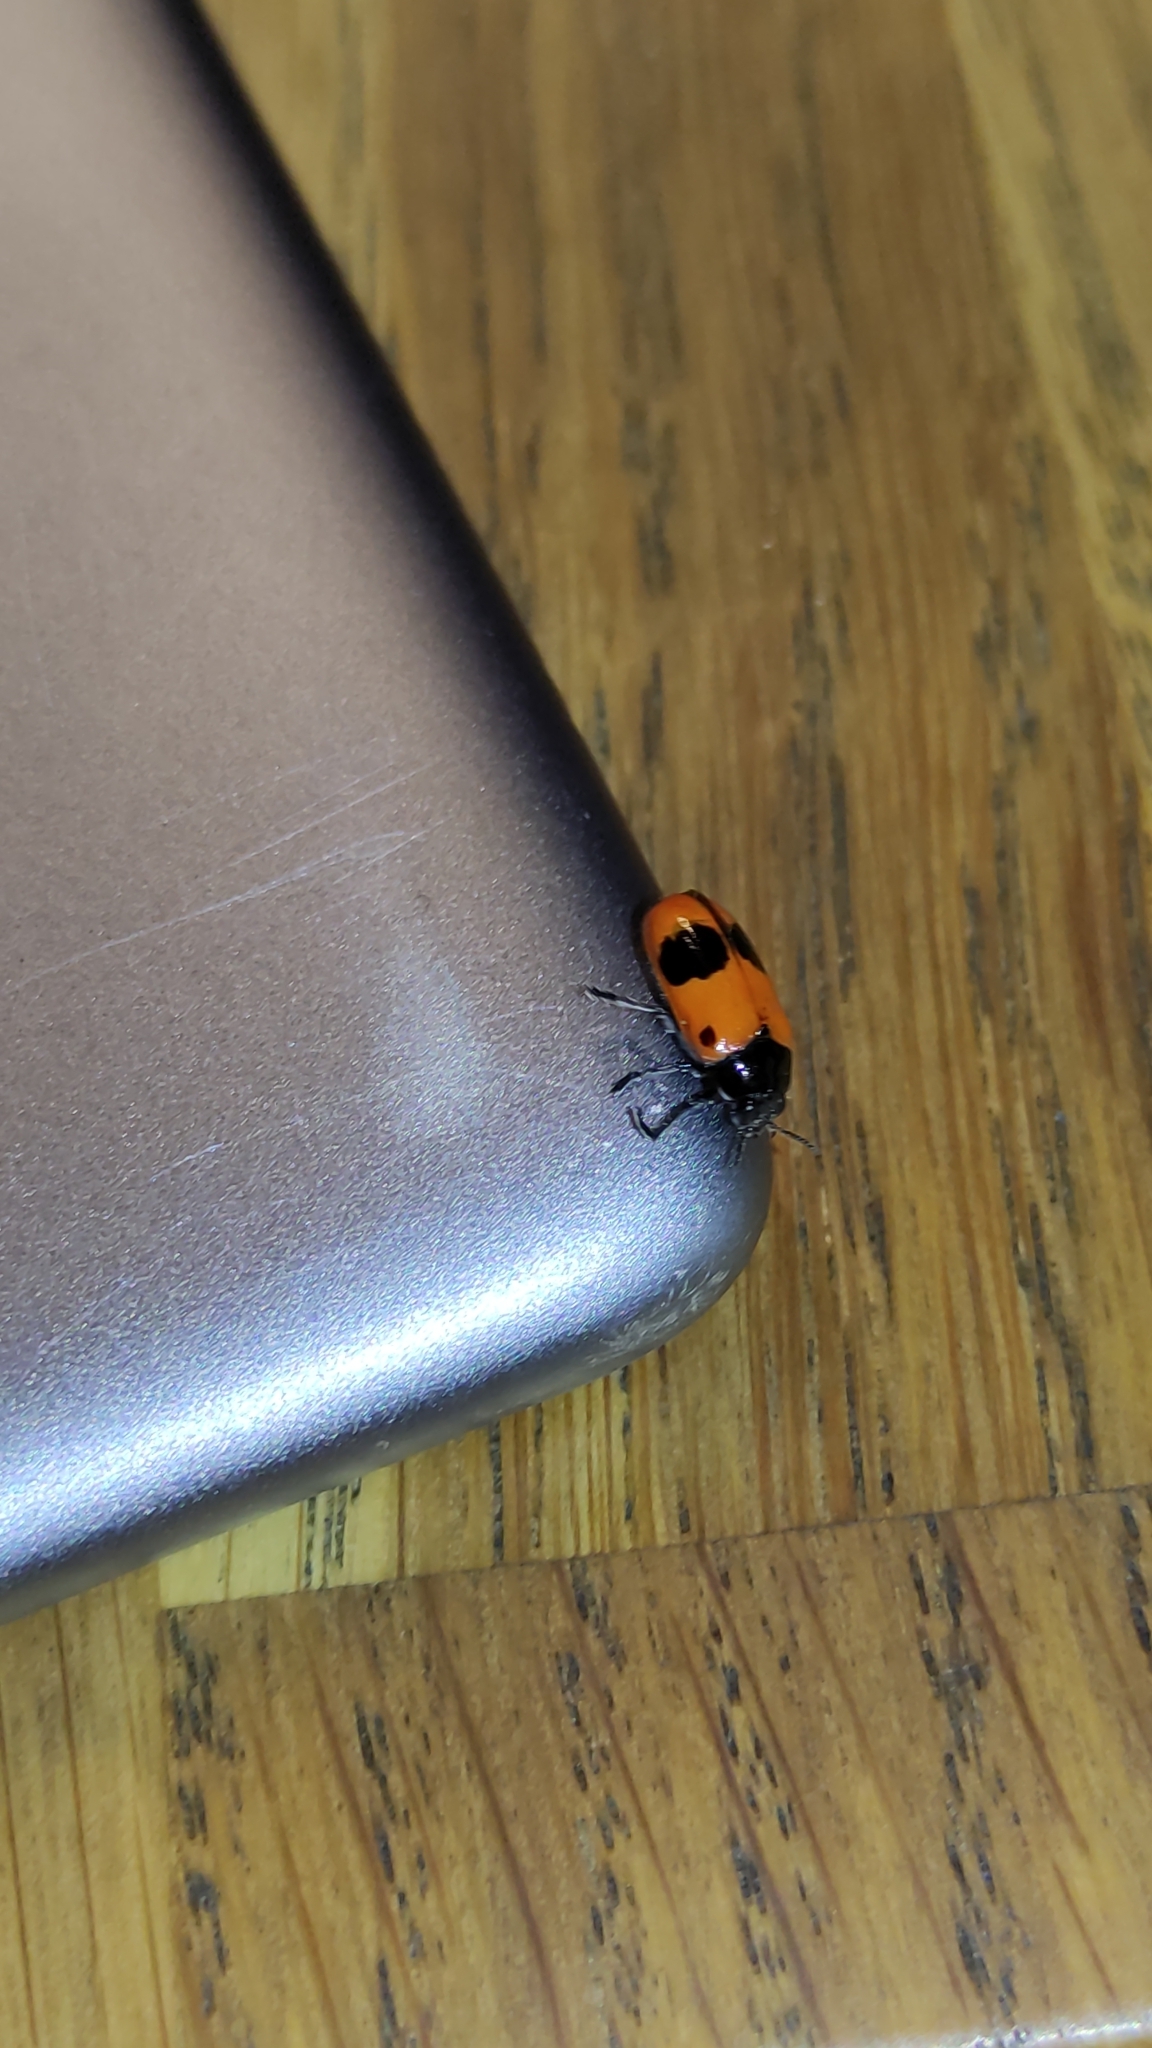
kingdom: Animalia
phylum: Arthropoda
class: Insecta
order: Coleoptera
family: Chrysomelidae
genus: Clytra
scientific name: Clytra laeviuscula
